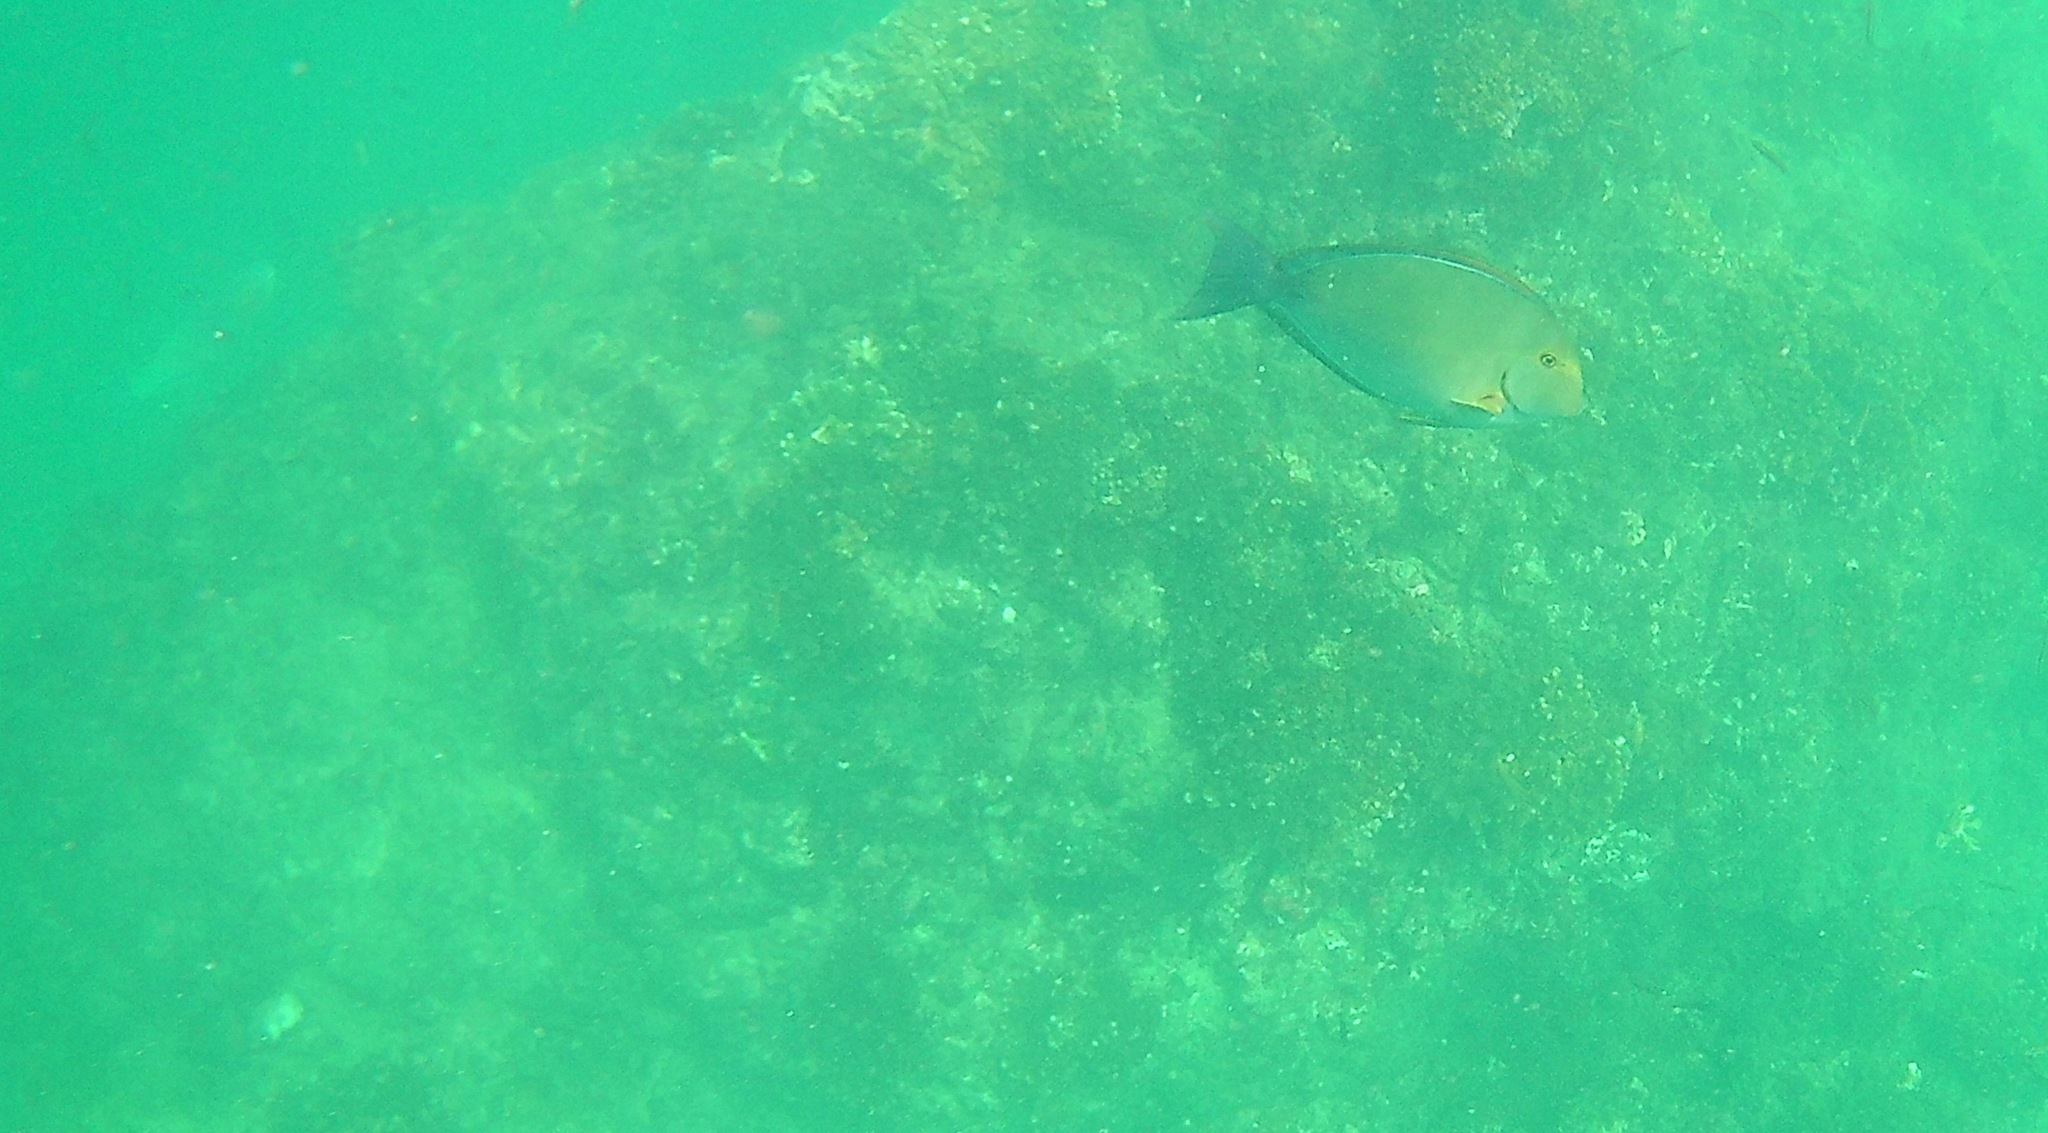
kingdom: Animalia
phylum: Chordata
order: Perciformes
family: Acanthuridae
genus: Acanthurus
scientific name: Acanthurus xanthopterus
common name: Cuvier's surgeonfish
